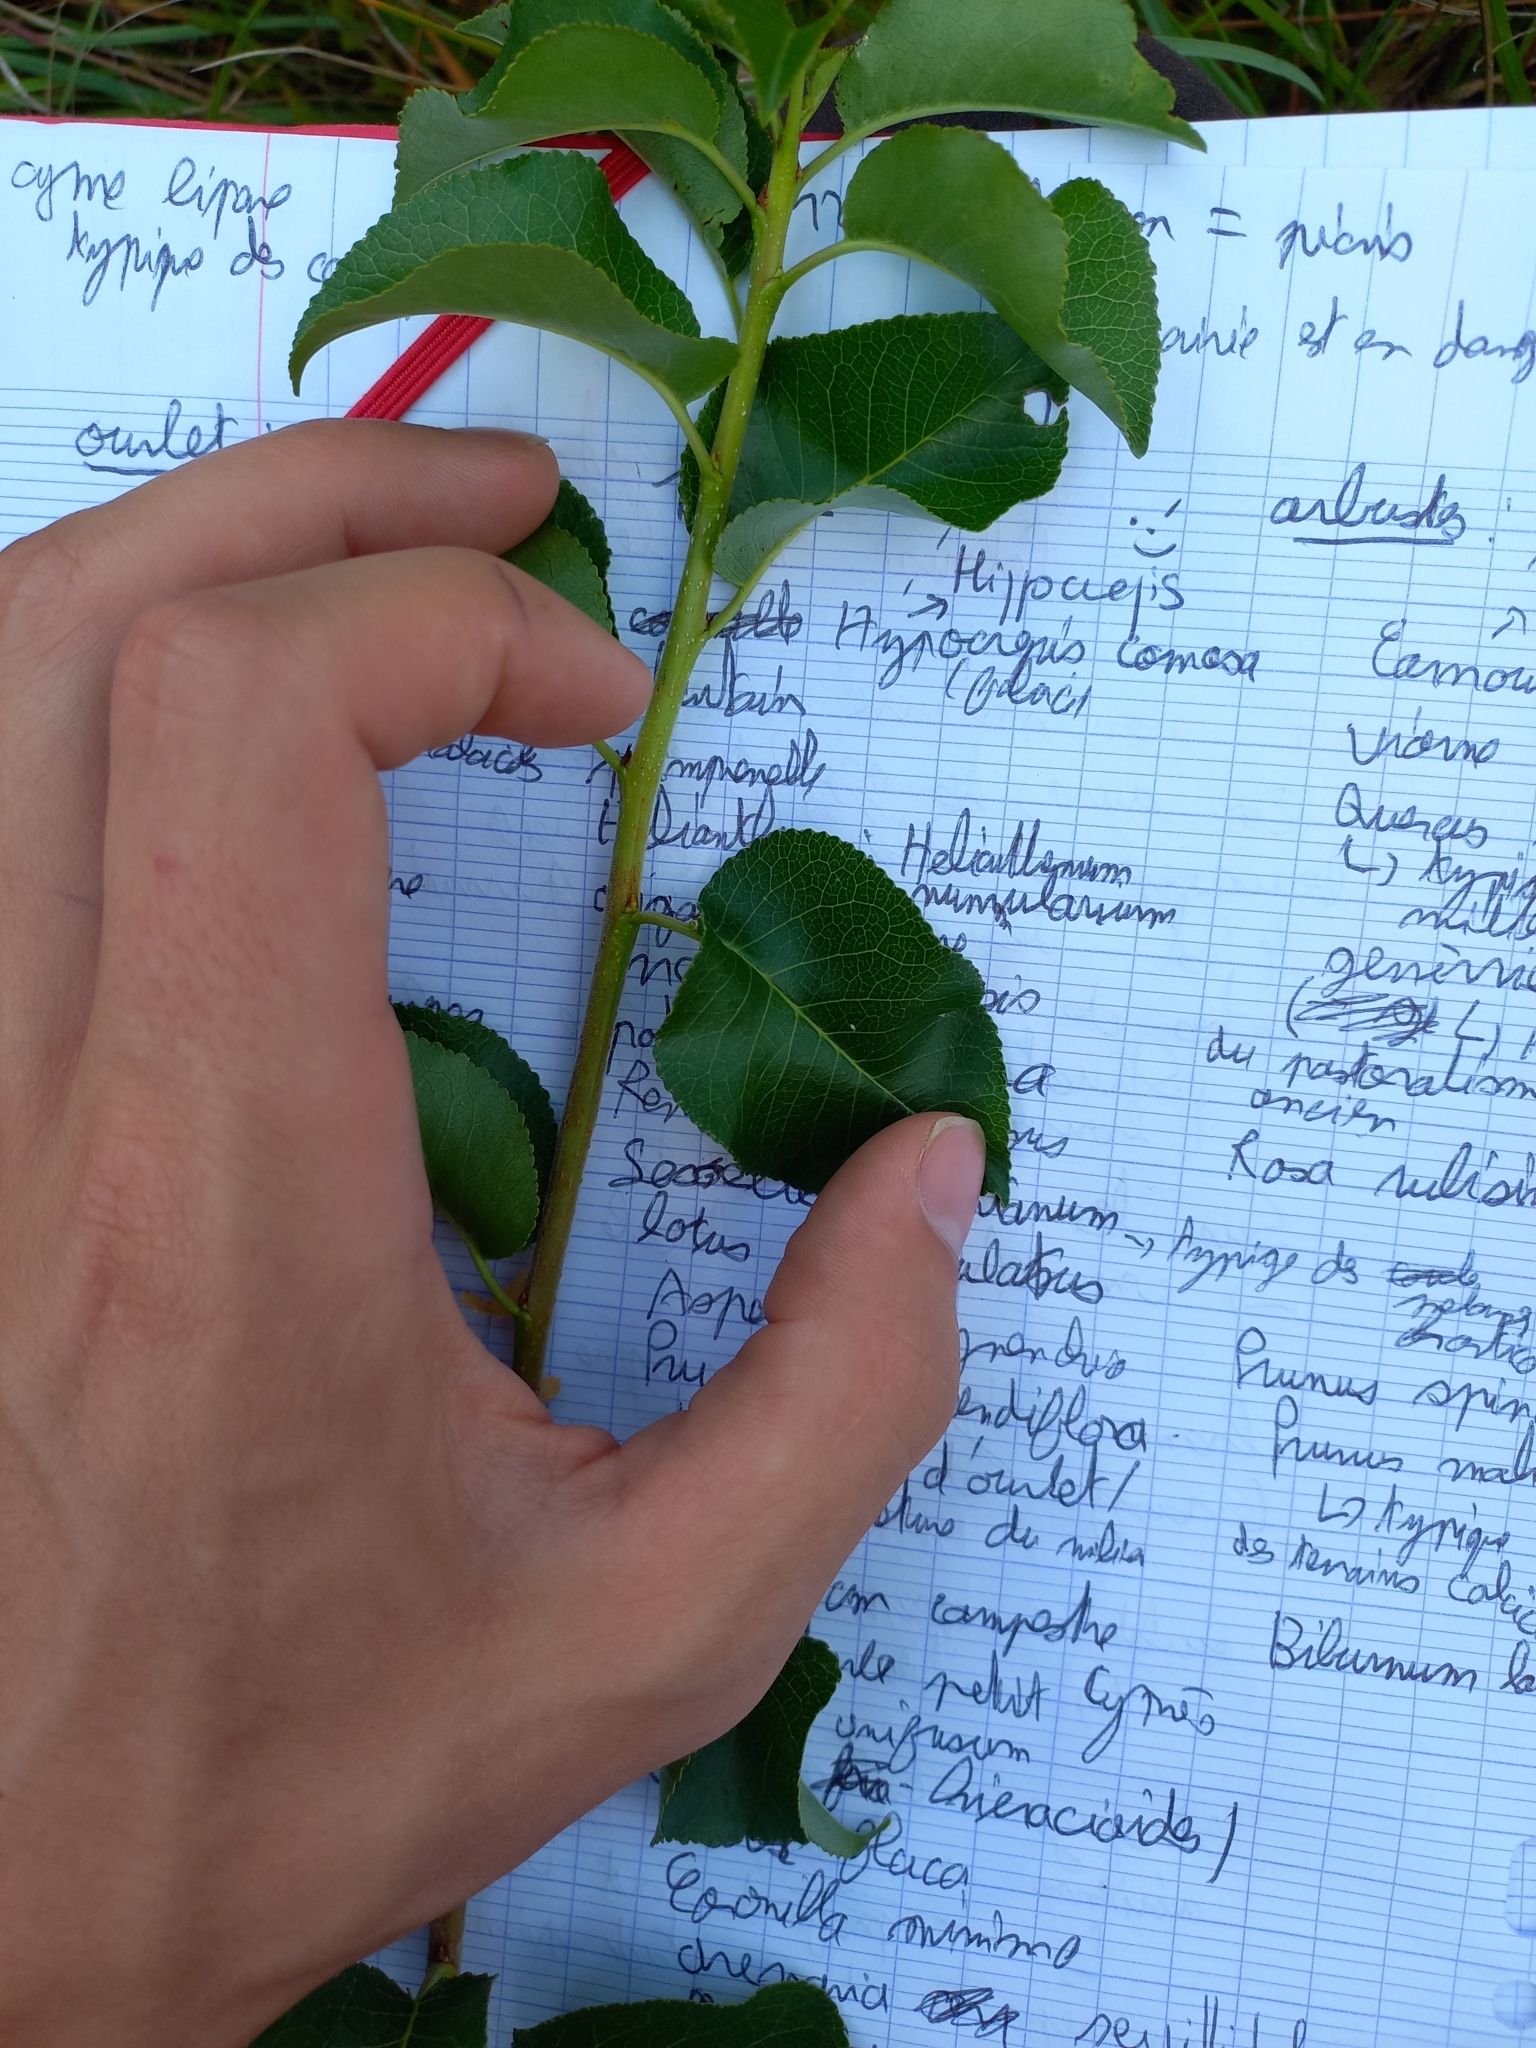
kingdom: Plantae
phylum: Tracheophyta
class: Magnoliopsida
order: Rosales
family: Rosaceae
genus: Prunus
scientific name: Prunus mahaleb
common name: Mahaleb cherry
